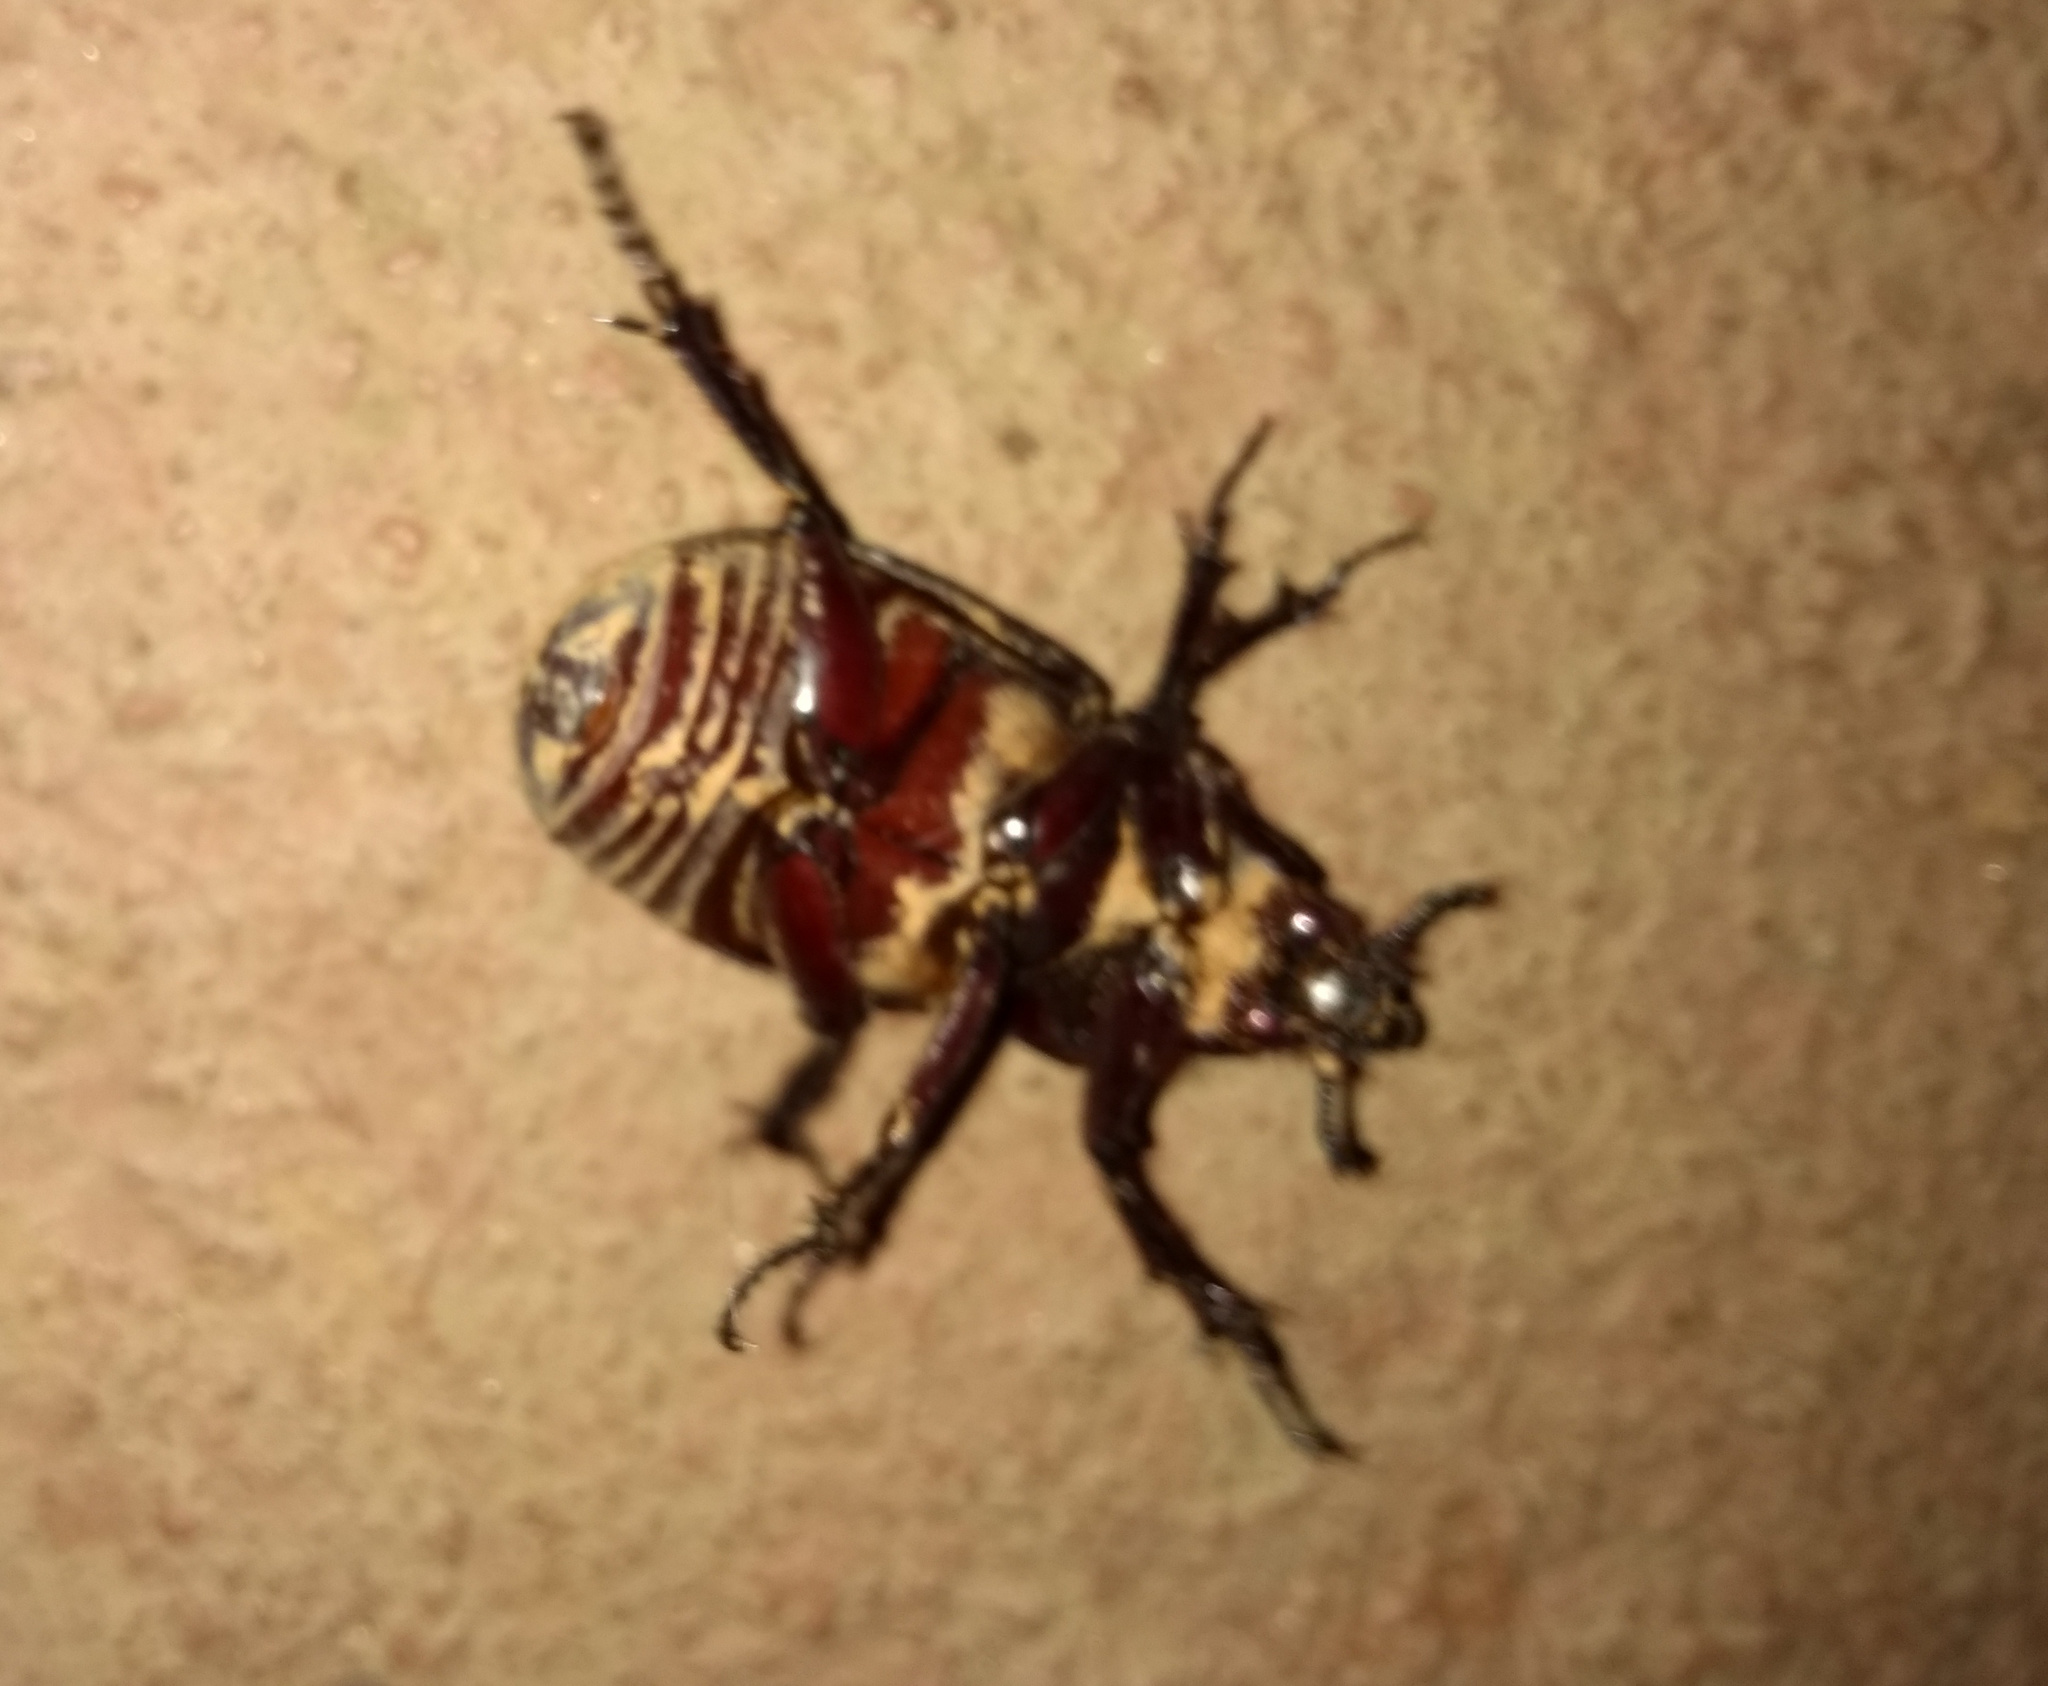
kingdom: Animalia
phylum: Arthropoda
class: Insecta
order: Coleoptera
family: Scarabaeidae
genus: Coelosis
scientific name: Coelosis biloba
